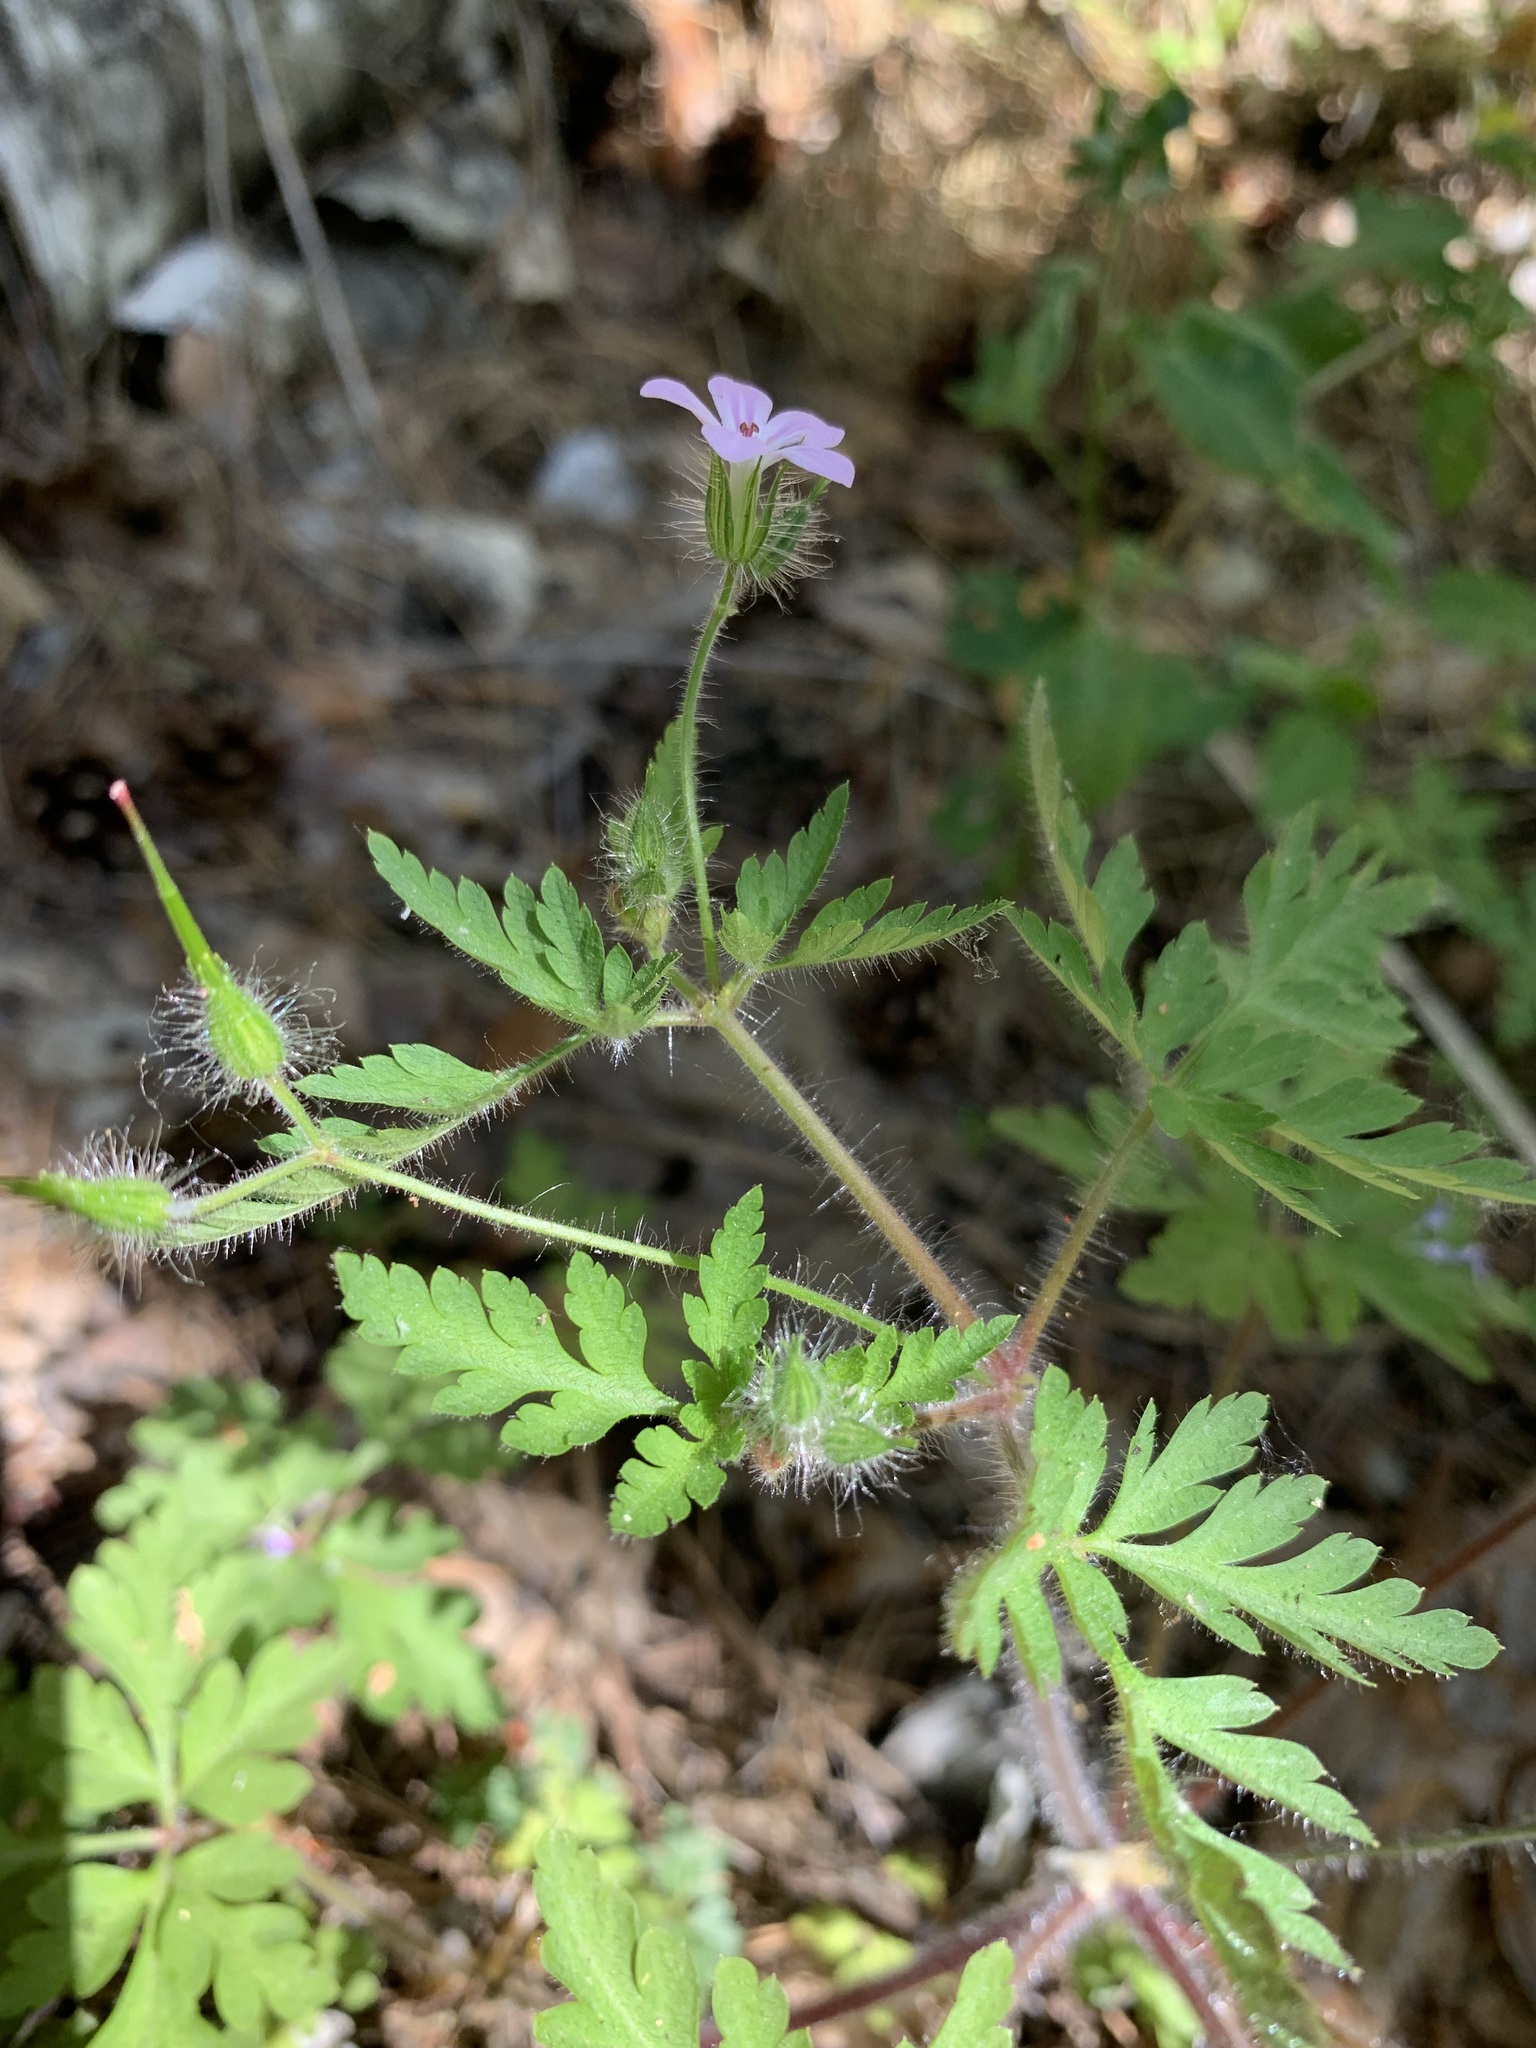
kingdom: Plantae
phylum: Tracheophyta
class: Magnoliopsida
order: Geraniales
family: Geraniaceae
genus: Geranium
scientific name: Geranium robertianum
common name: Herb-robert
